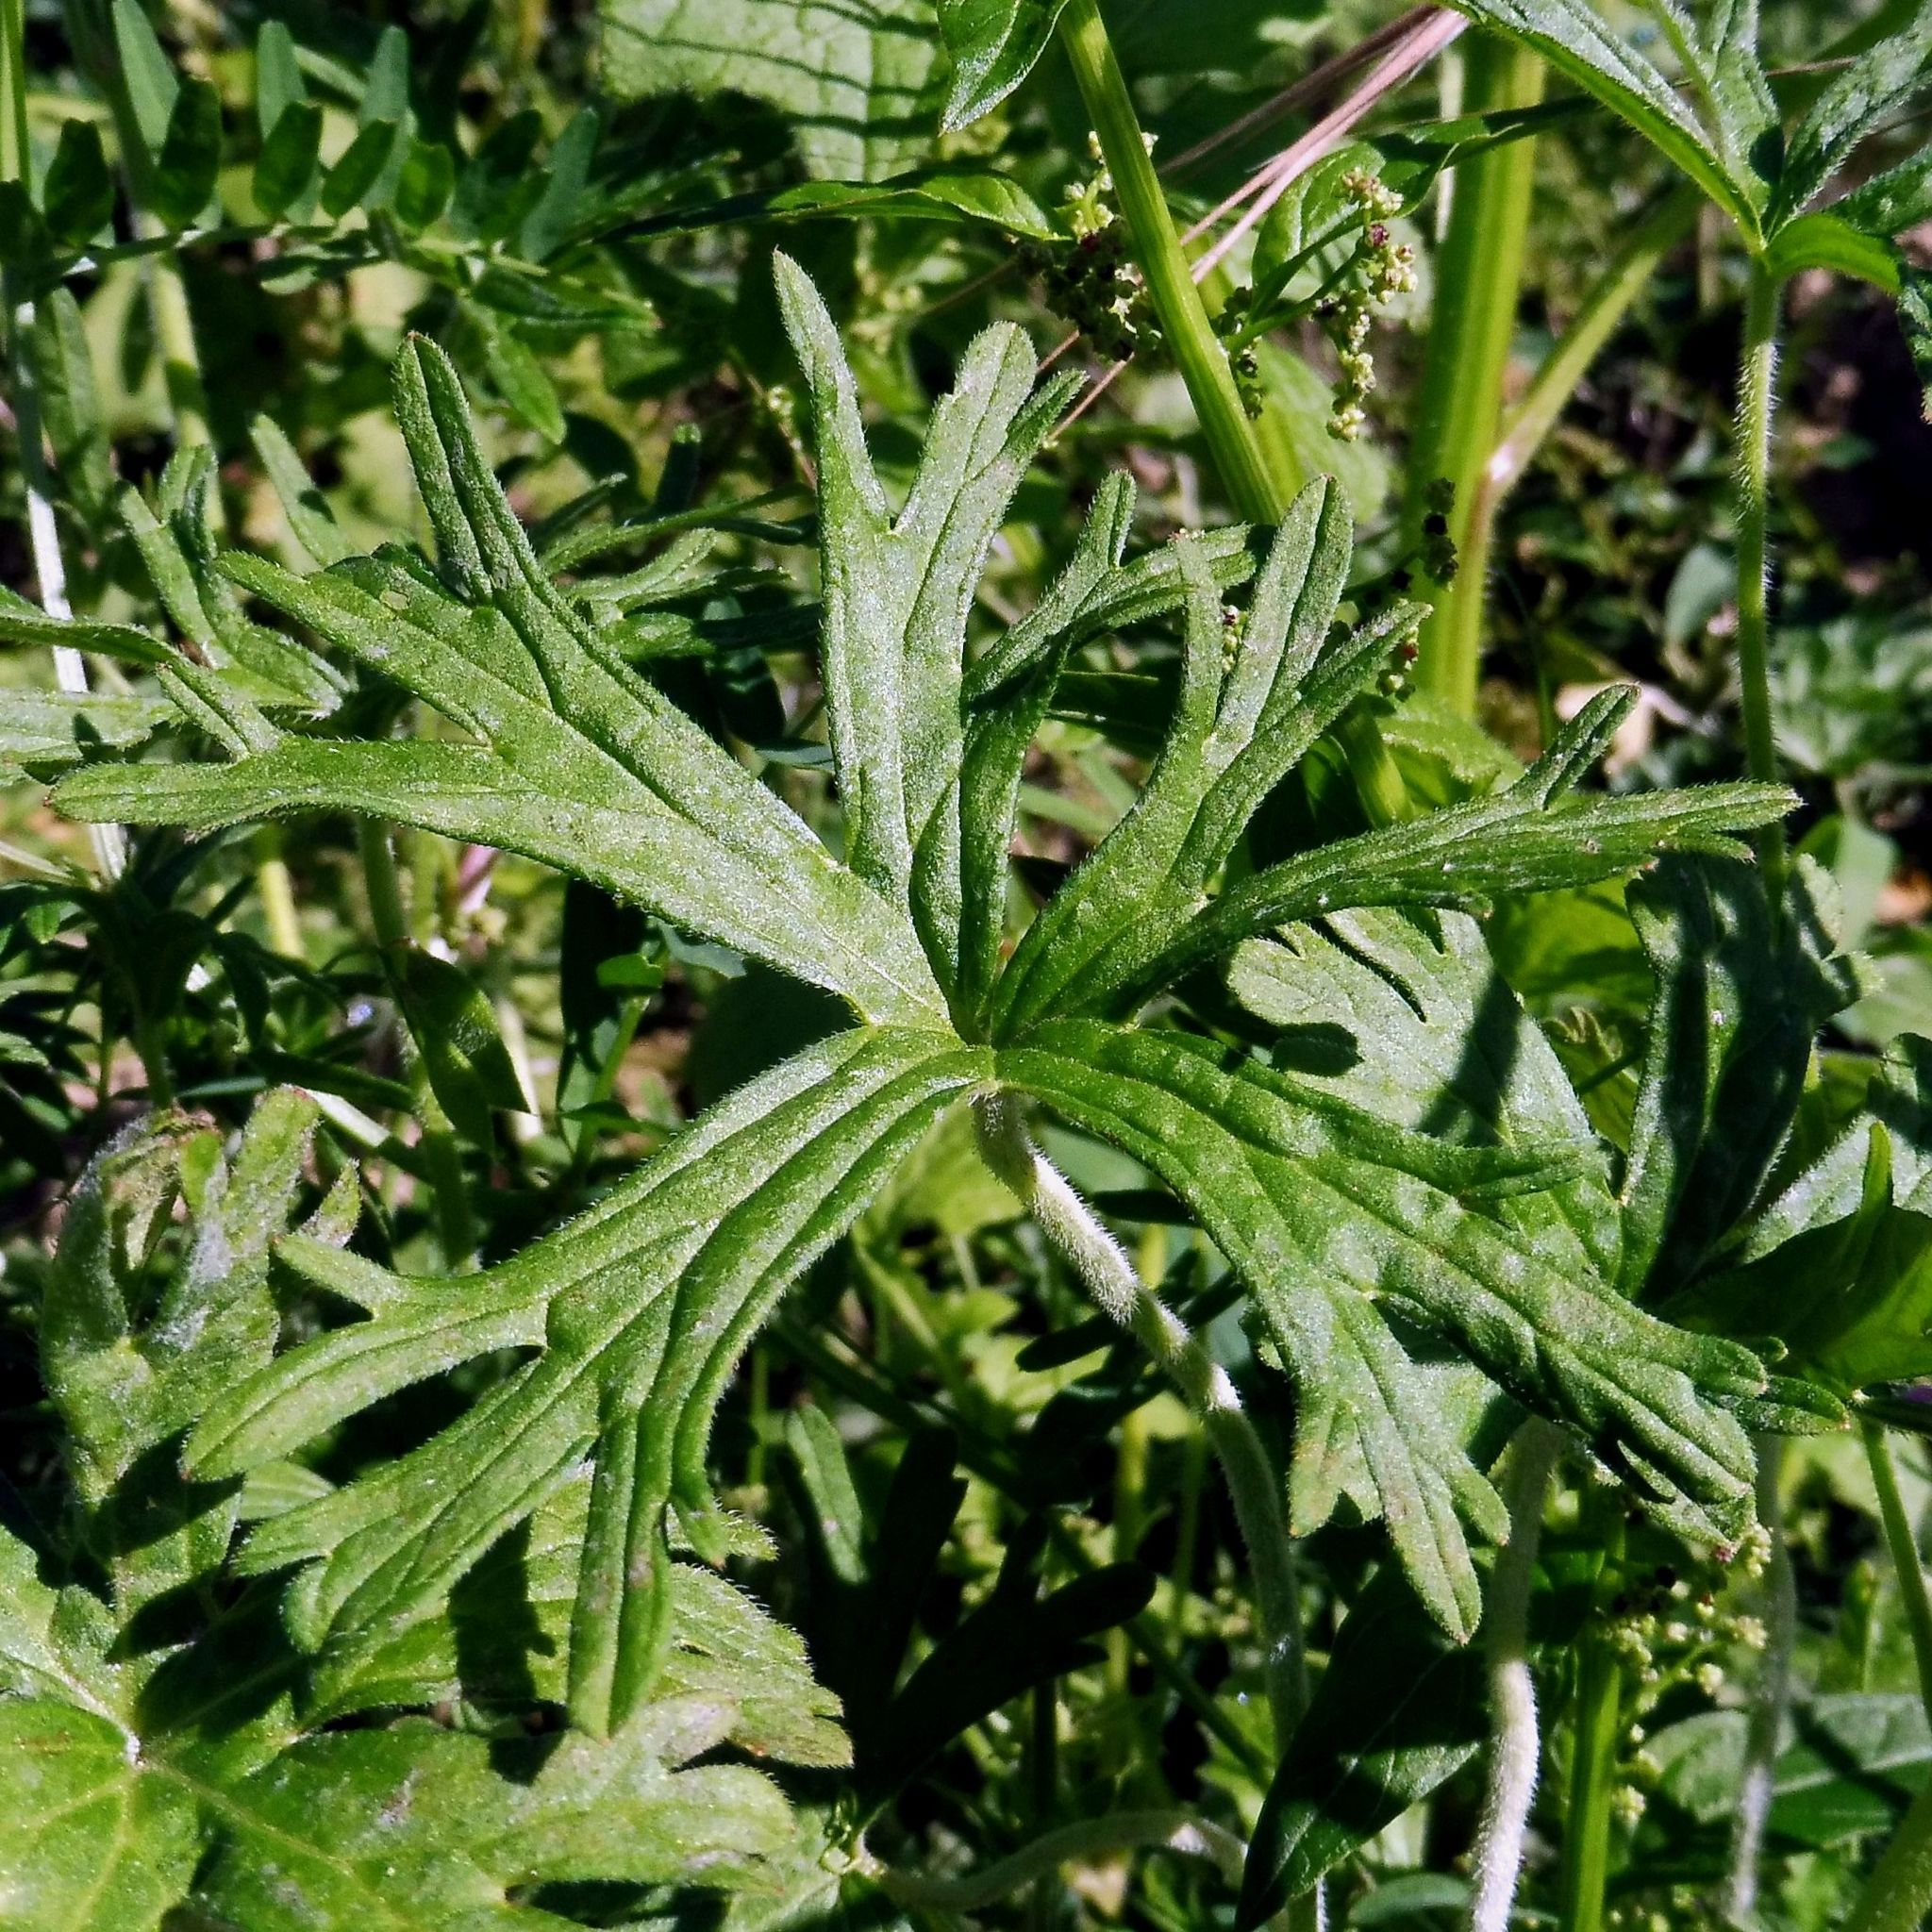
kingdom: Plantae
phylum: Tracheophyta
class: Magnoliopsida
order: Geraniales
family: Geraniaceae
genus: Geranium
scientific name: Geranium dissectum
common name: Cut-leaved crane's-bill
